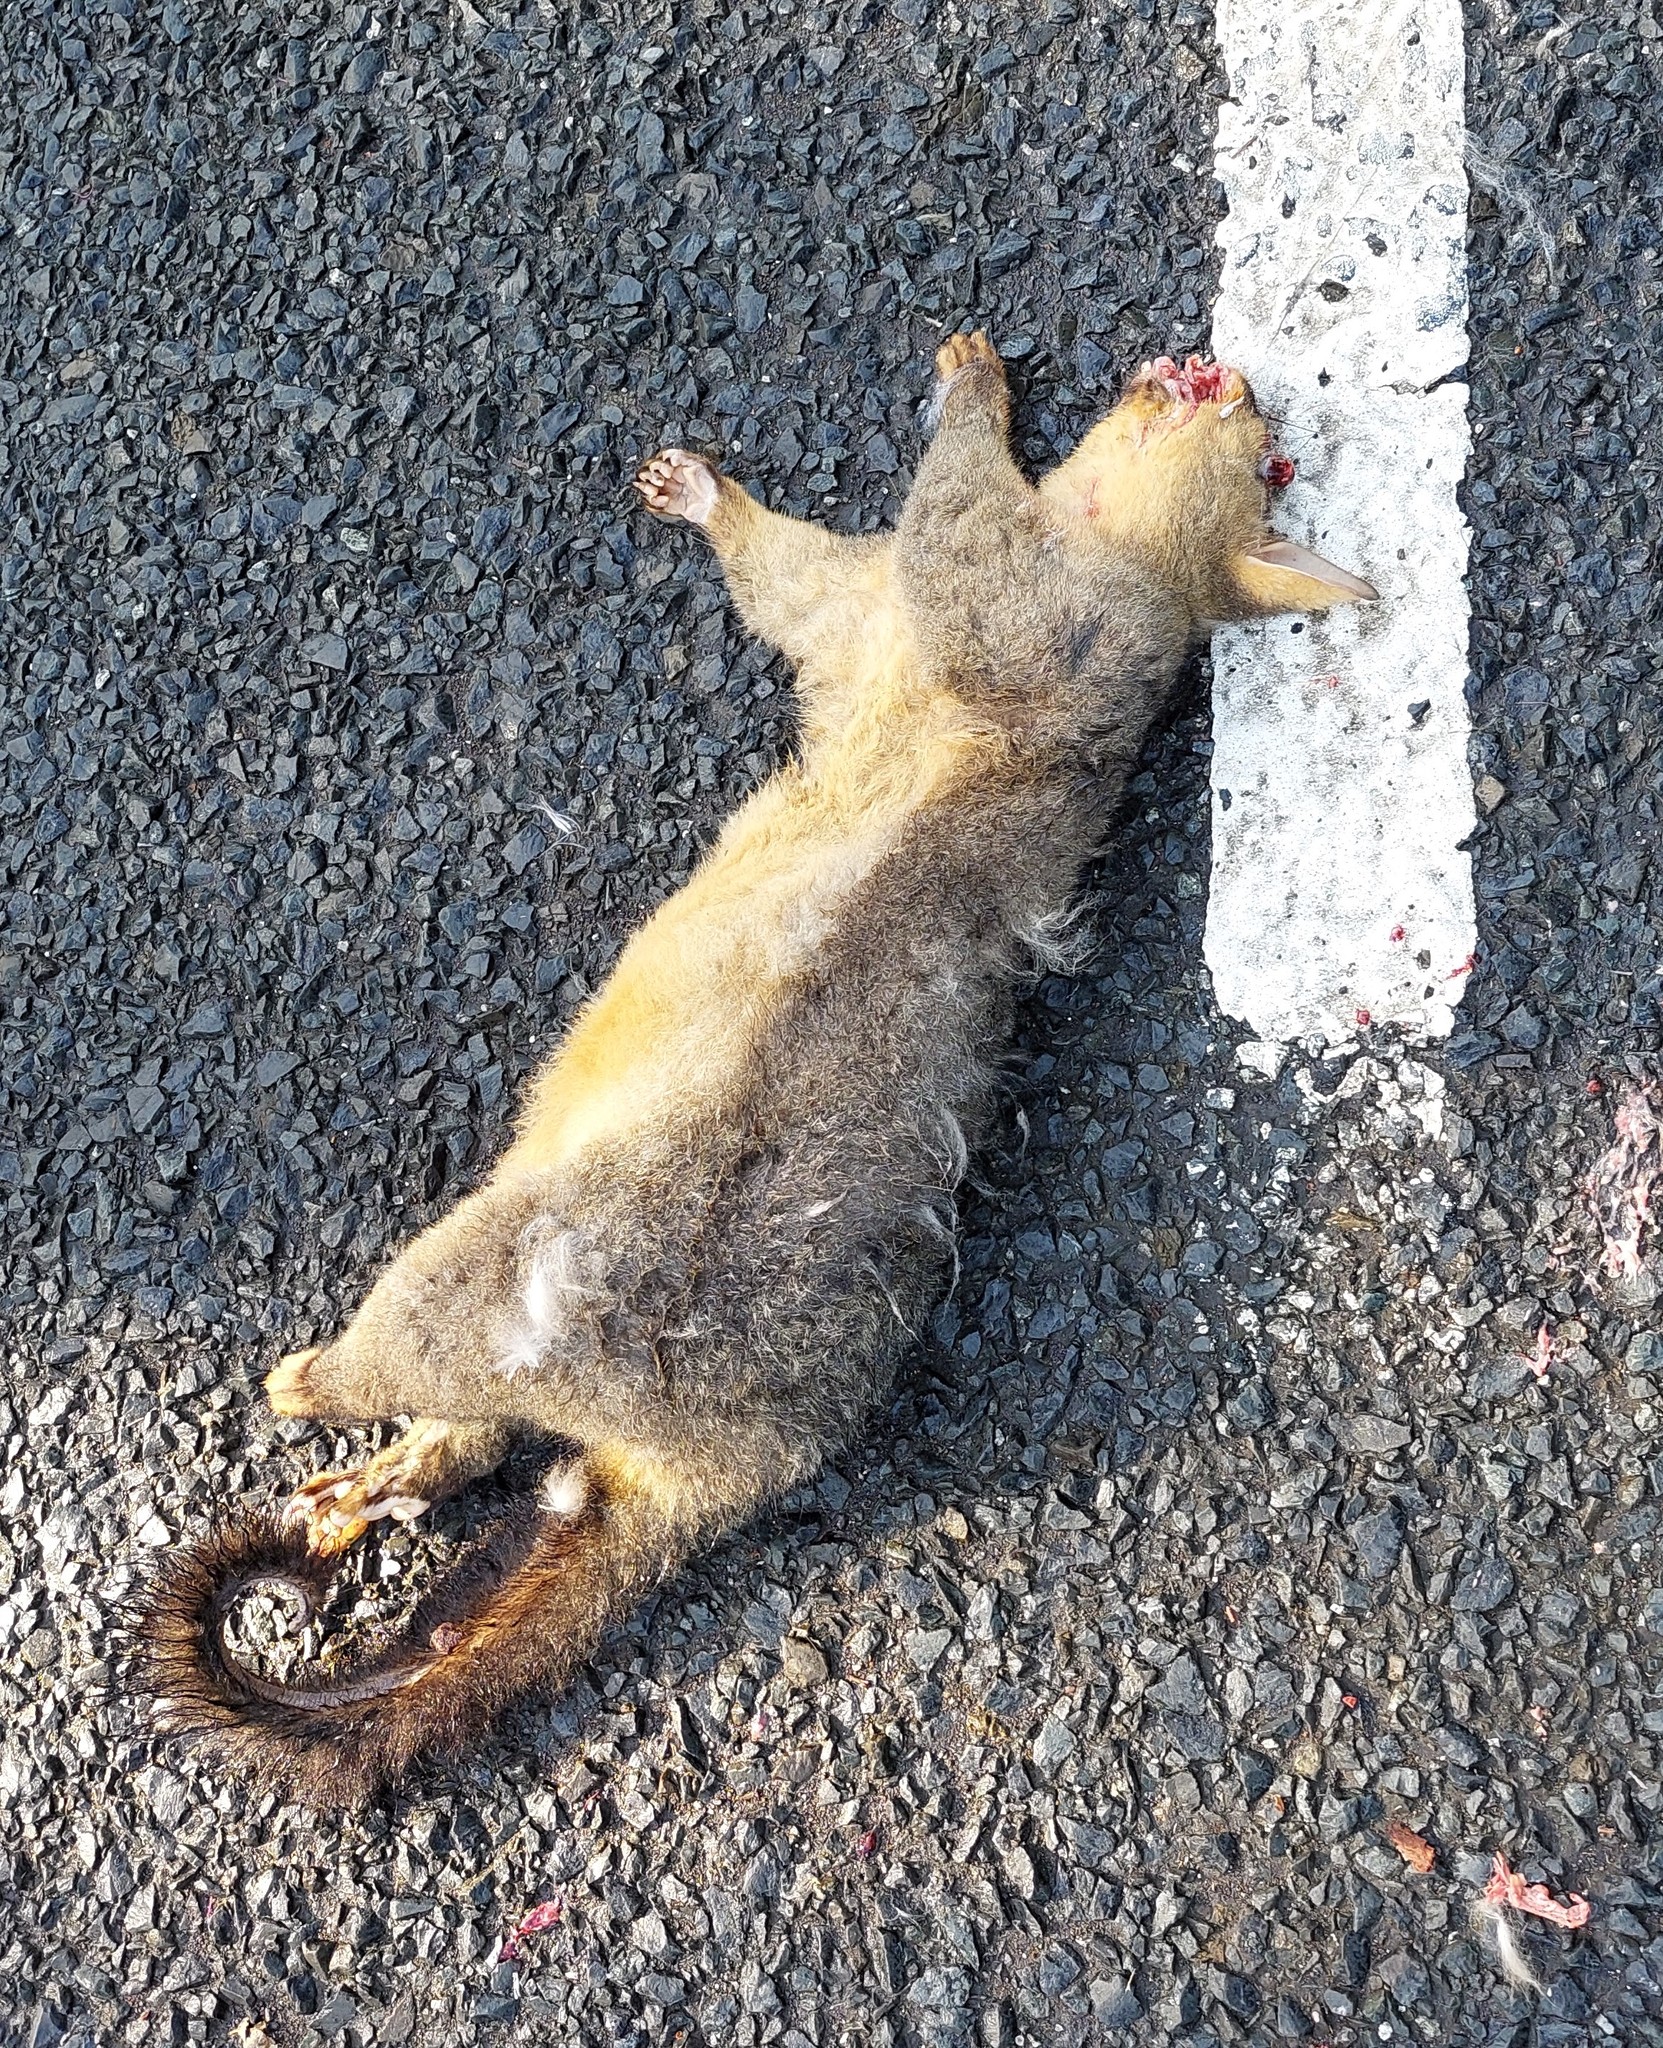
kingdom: Animalia
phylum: Chordata
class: Mammalia
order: Diprotodontia
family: Phalangeridae
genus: Trichosurus
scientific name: Trichosurus vulpecula
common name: Common brushtail
